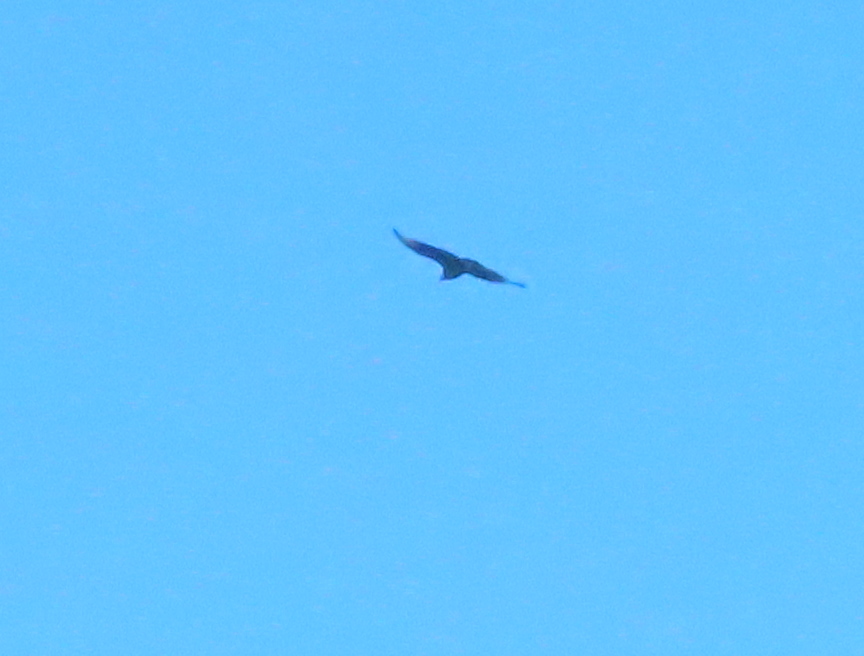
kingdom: Animalia
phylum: Chordata
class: Aves
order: Accipitriformes
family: Cathartidae
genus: Coragyps
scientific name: Coragyps atratus
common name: Black vulture
